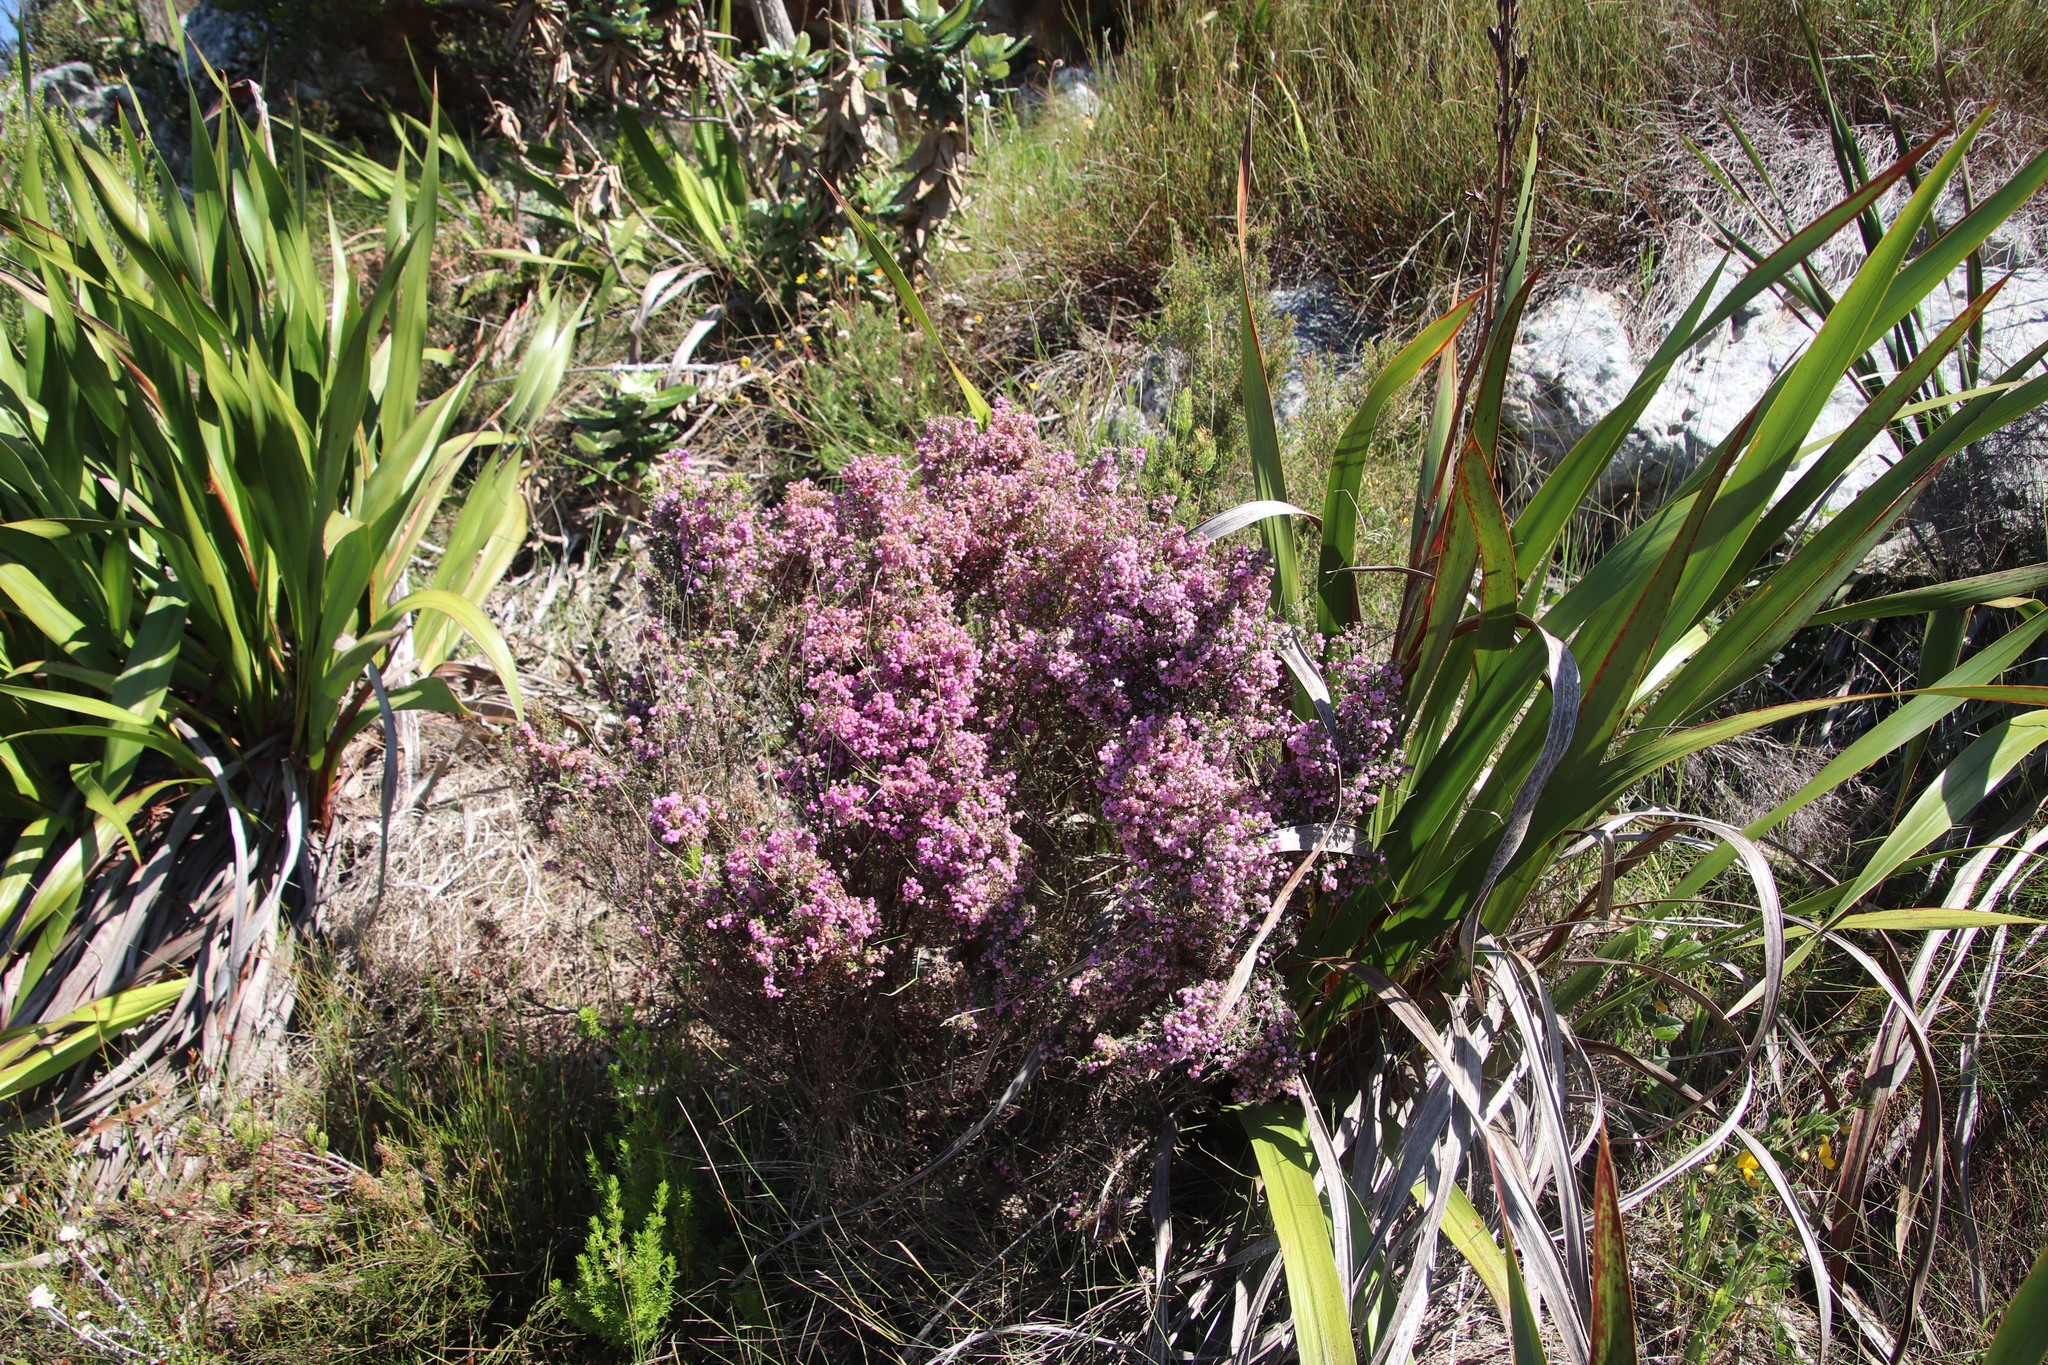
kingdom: Plantae
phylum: Tracheophyta
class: Magnoliopsida
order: Ericales
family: Ericaceae
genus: Erica
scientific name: Erica hirtiflora
